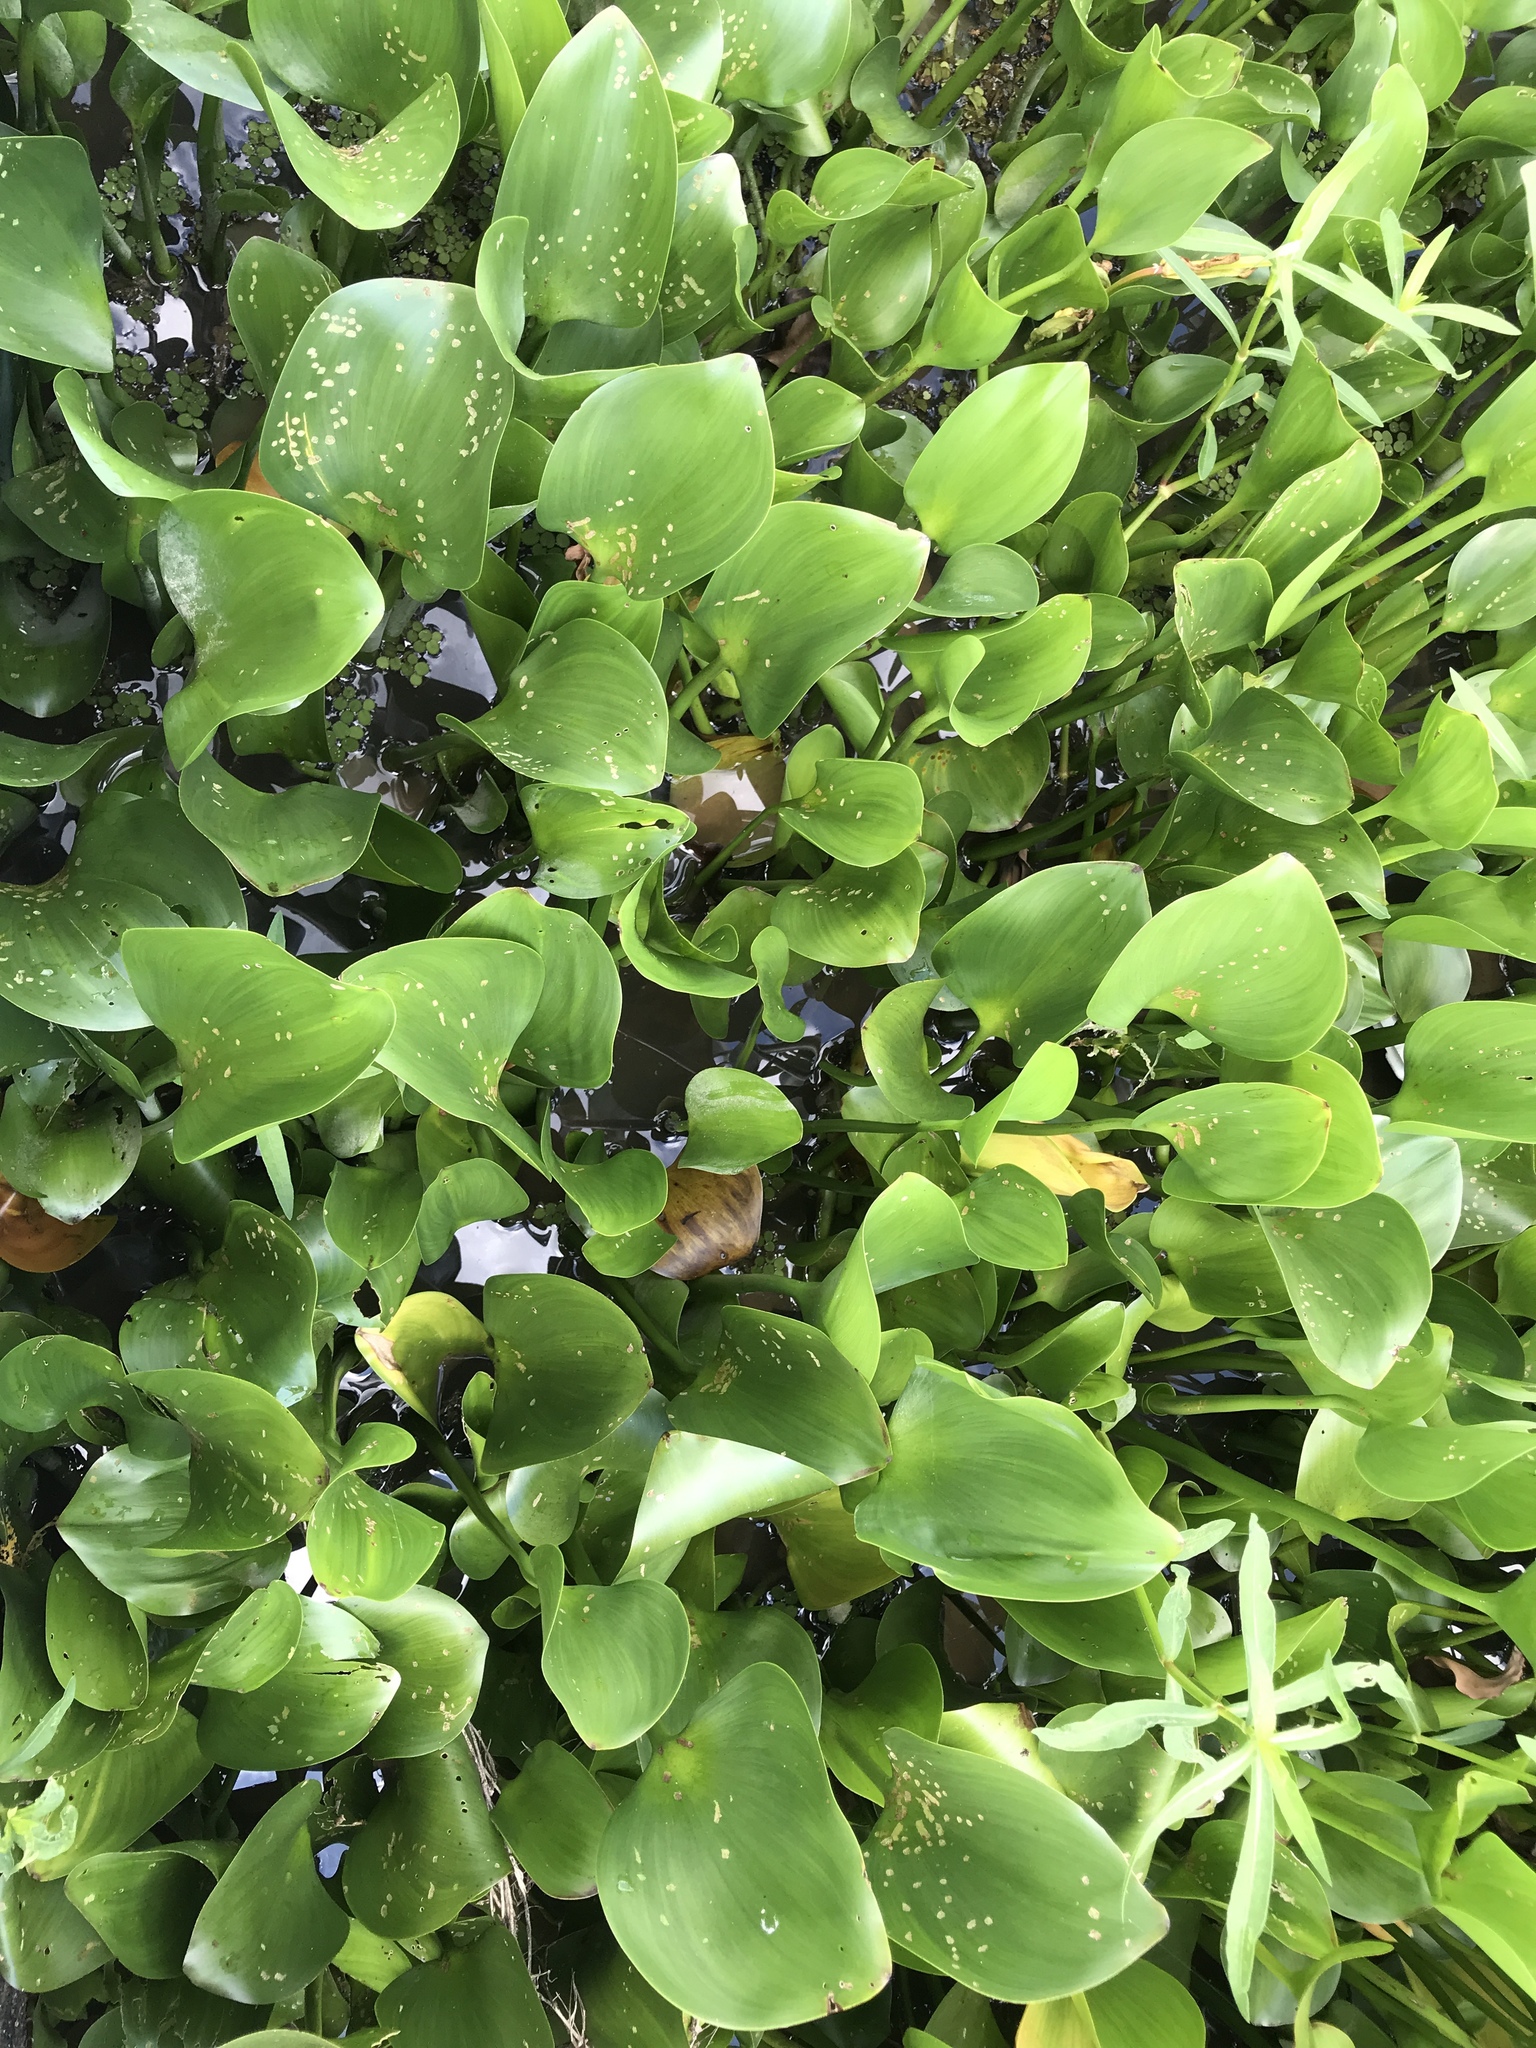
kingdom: Plantae
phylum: Tracheophyta
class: Liliopsida
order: Commelinales
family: Pontederiaceae
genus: Pontederia
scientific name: Pontederia crassipes
